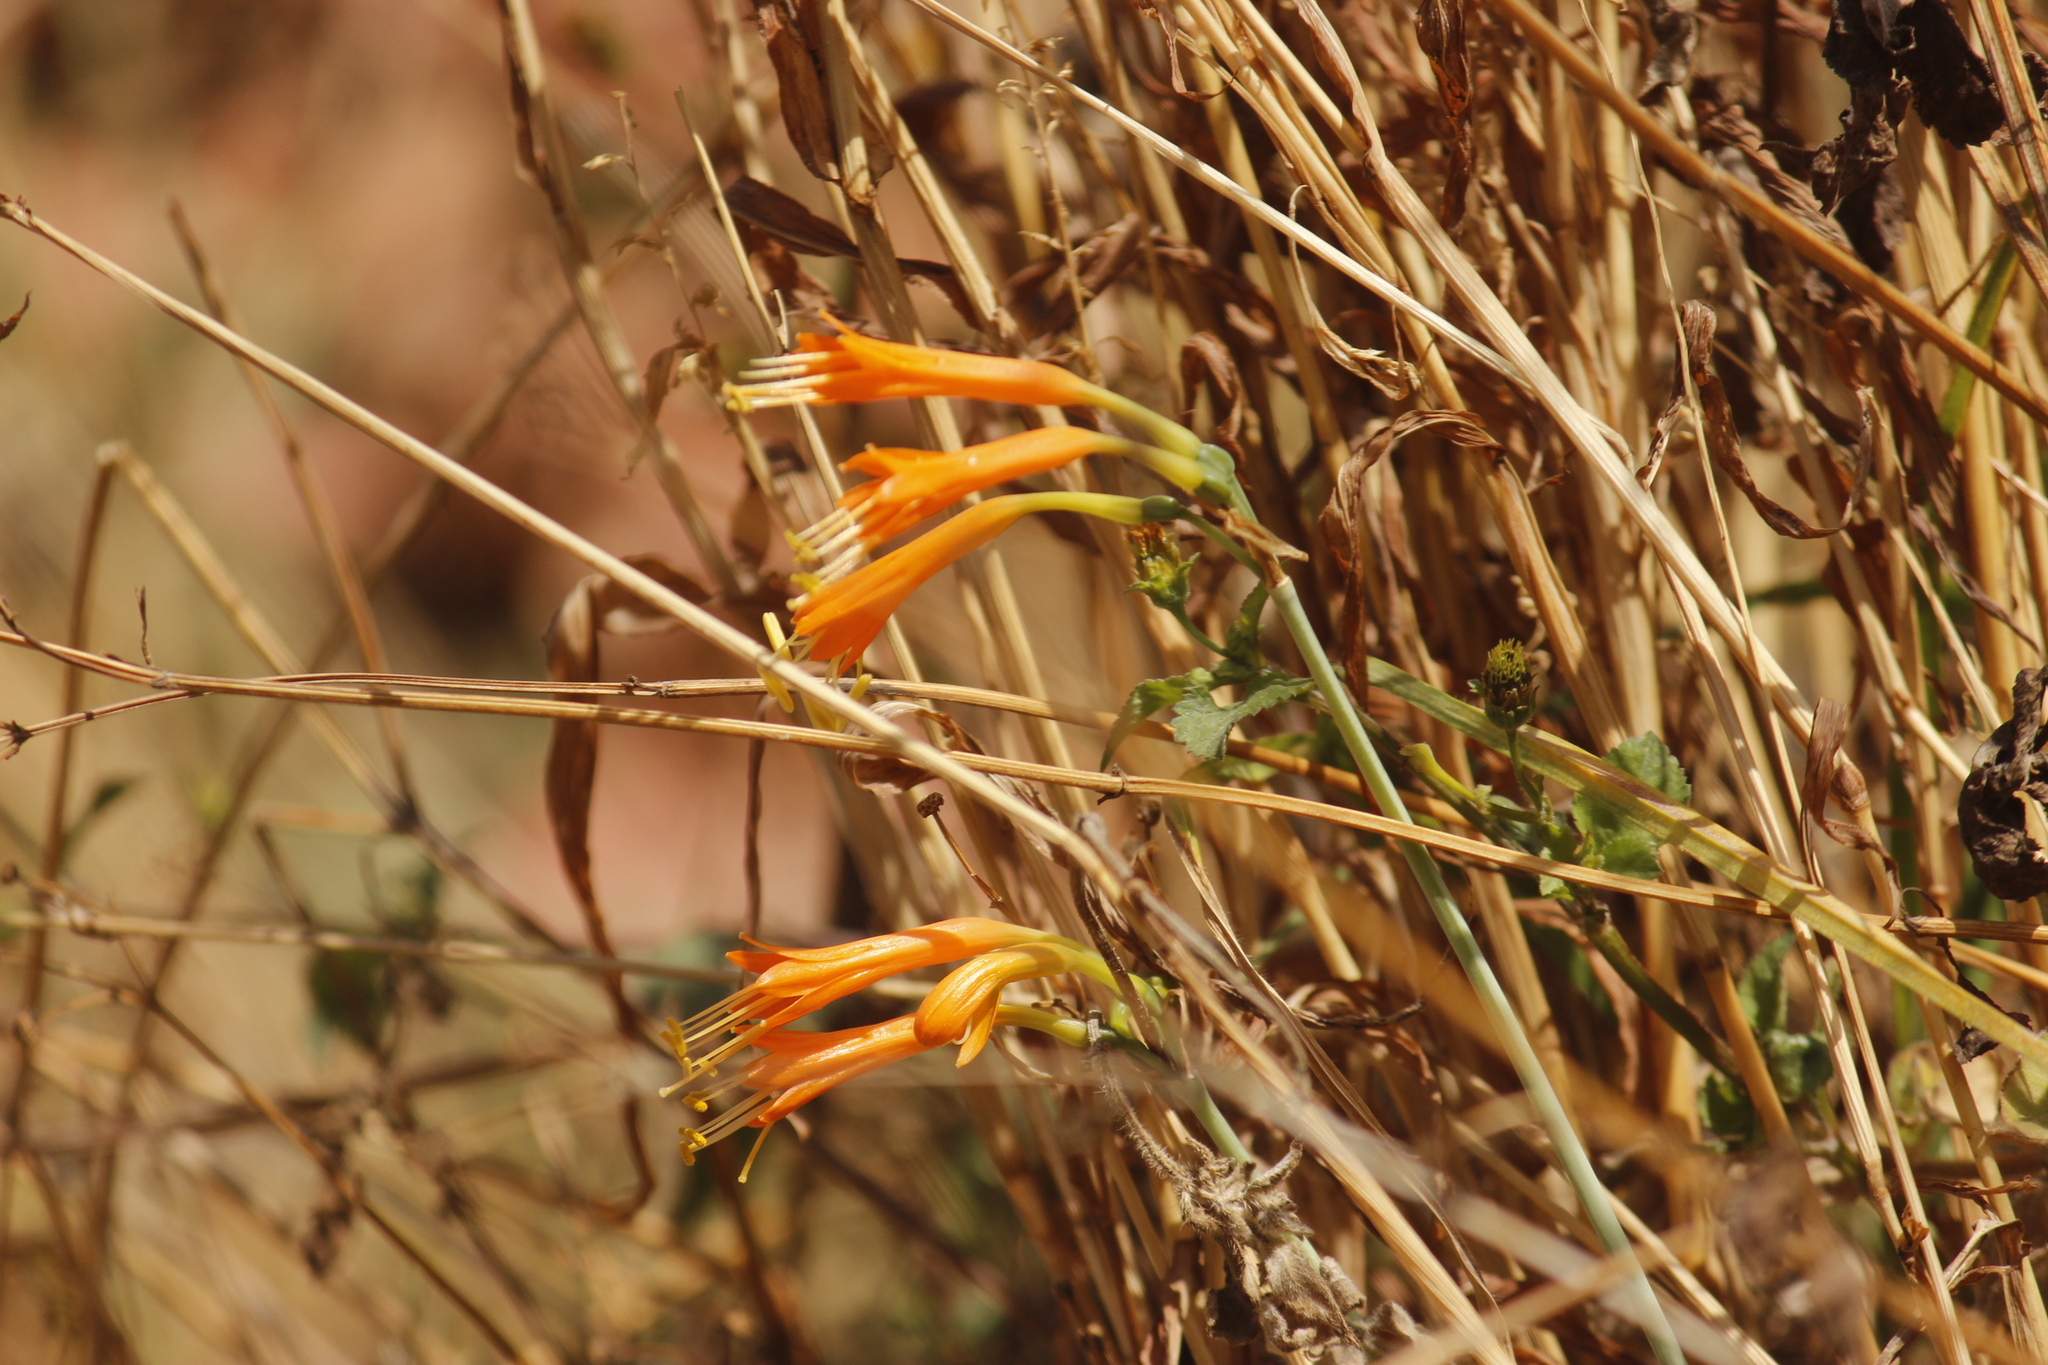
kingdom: Plantae
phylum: Tracheophyta
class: Liliopsida
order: Asparagales
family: Amaryllidaceae
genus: Stenomesson
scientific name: Stenomesson flavum
